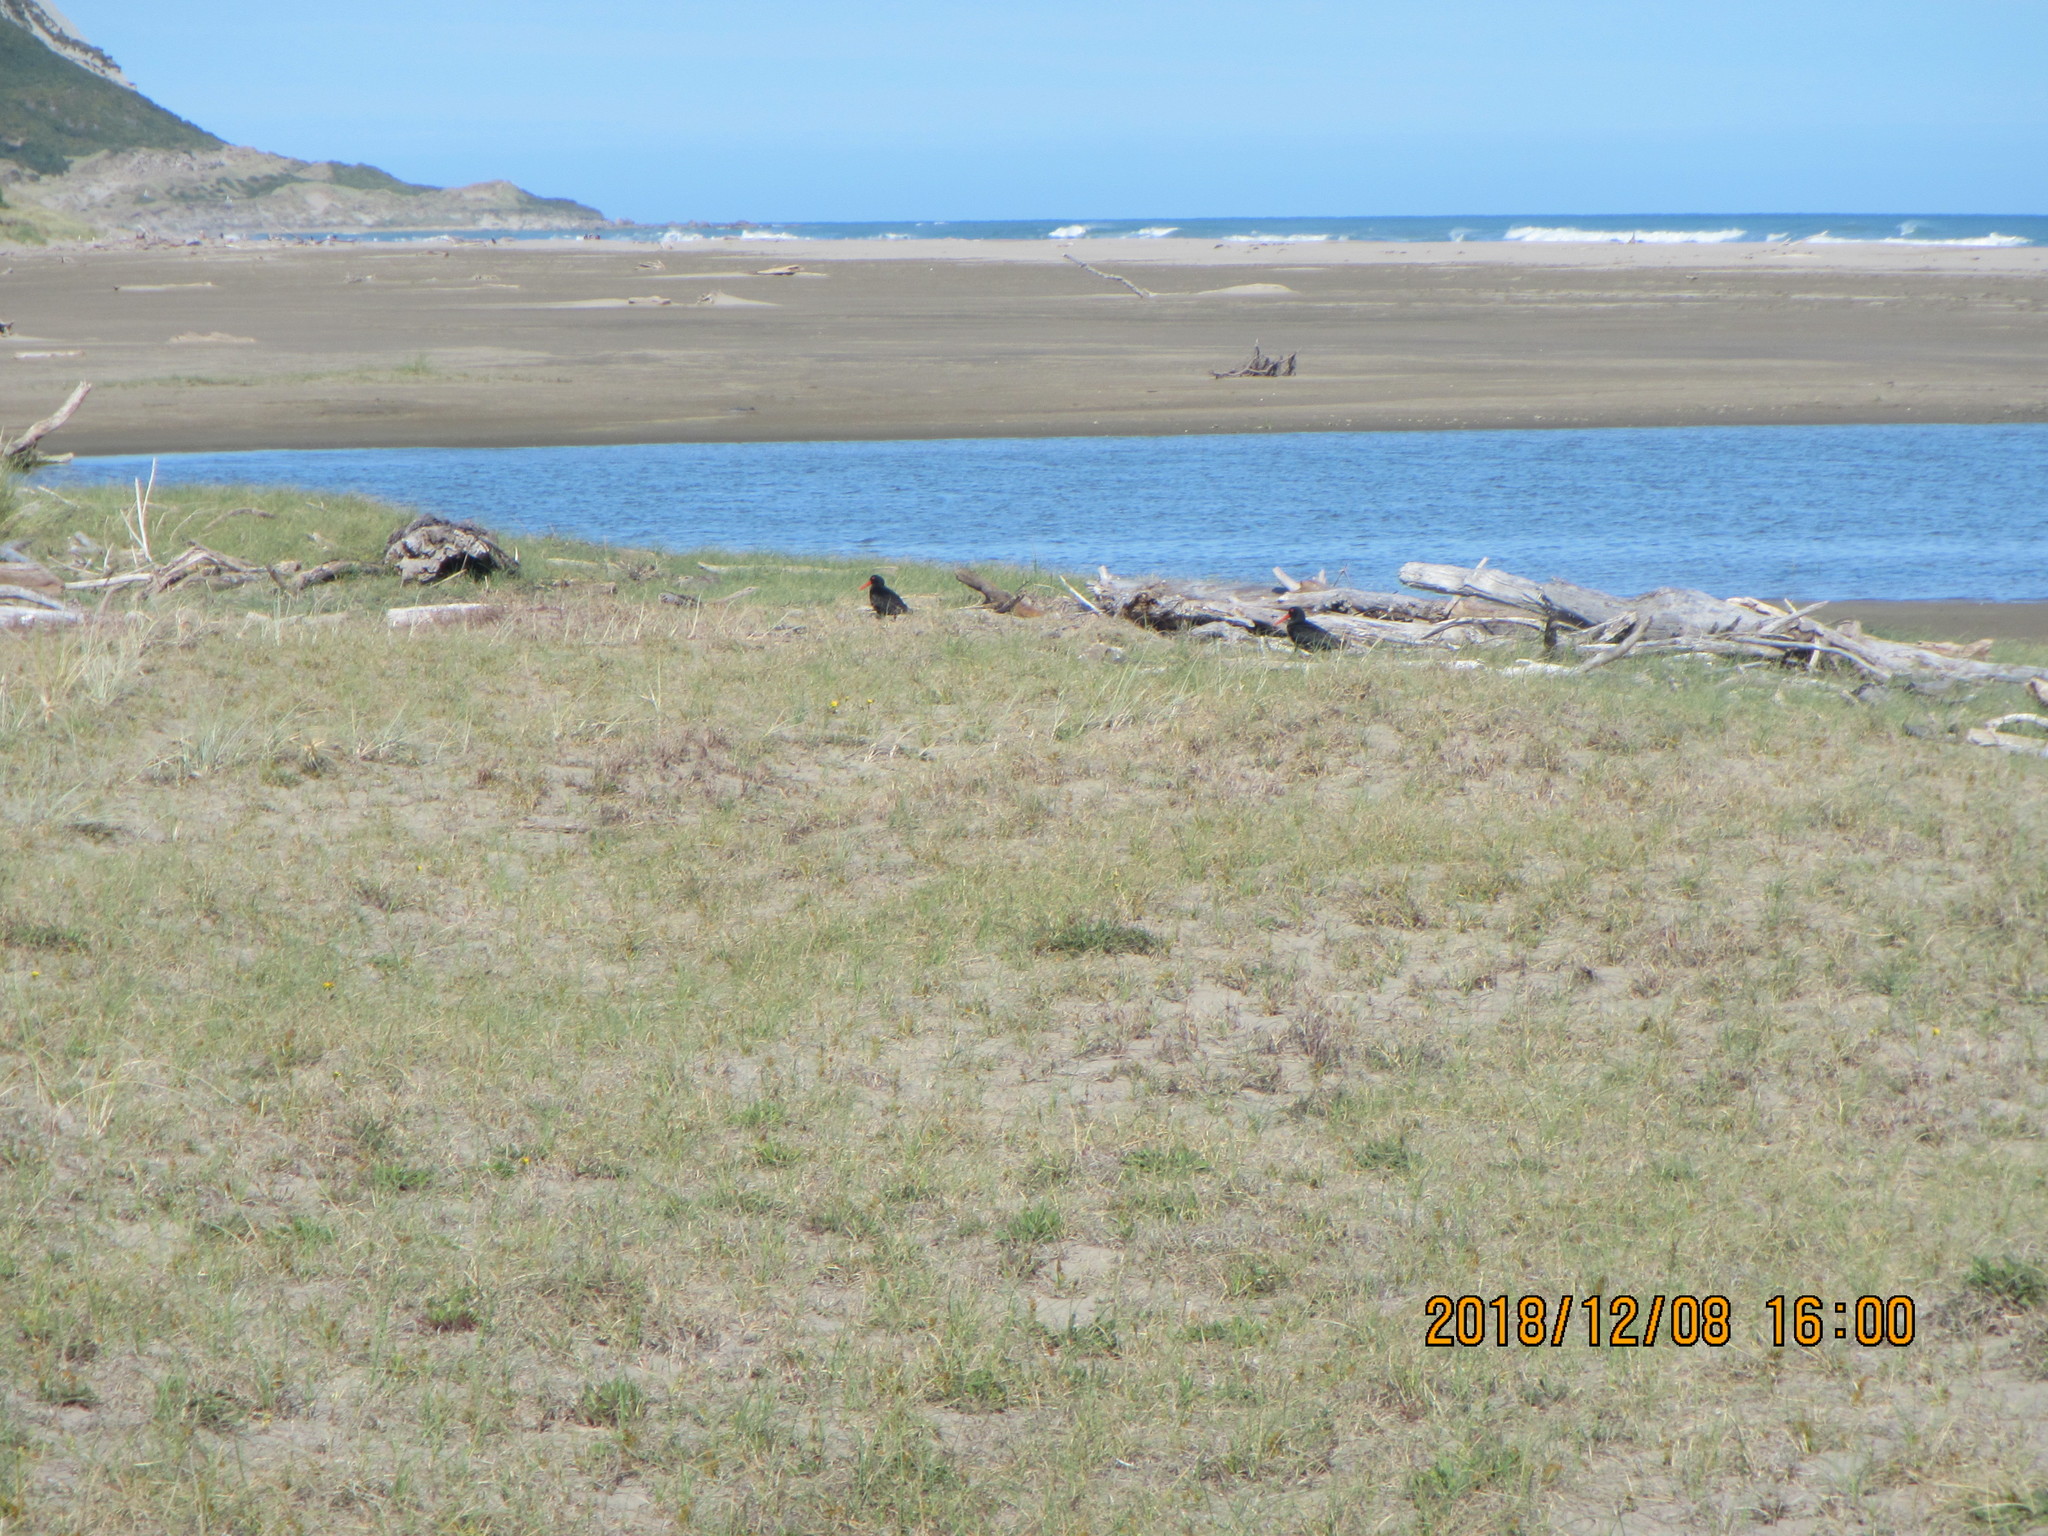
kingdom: Animalia
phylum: Chordata
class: Aves
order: Charadriiformes
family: Haematopodidae
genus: Haematopus
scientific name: Haematopus unicolor
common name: Variable oystercatcher
